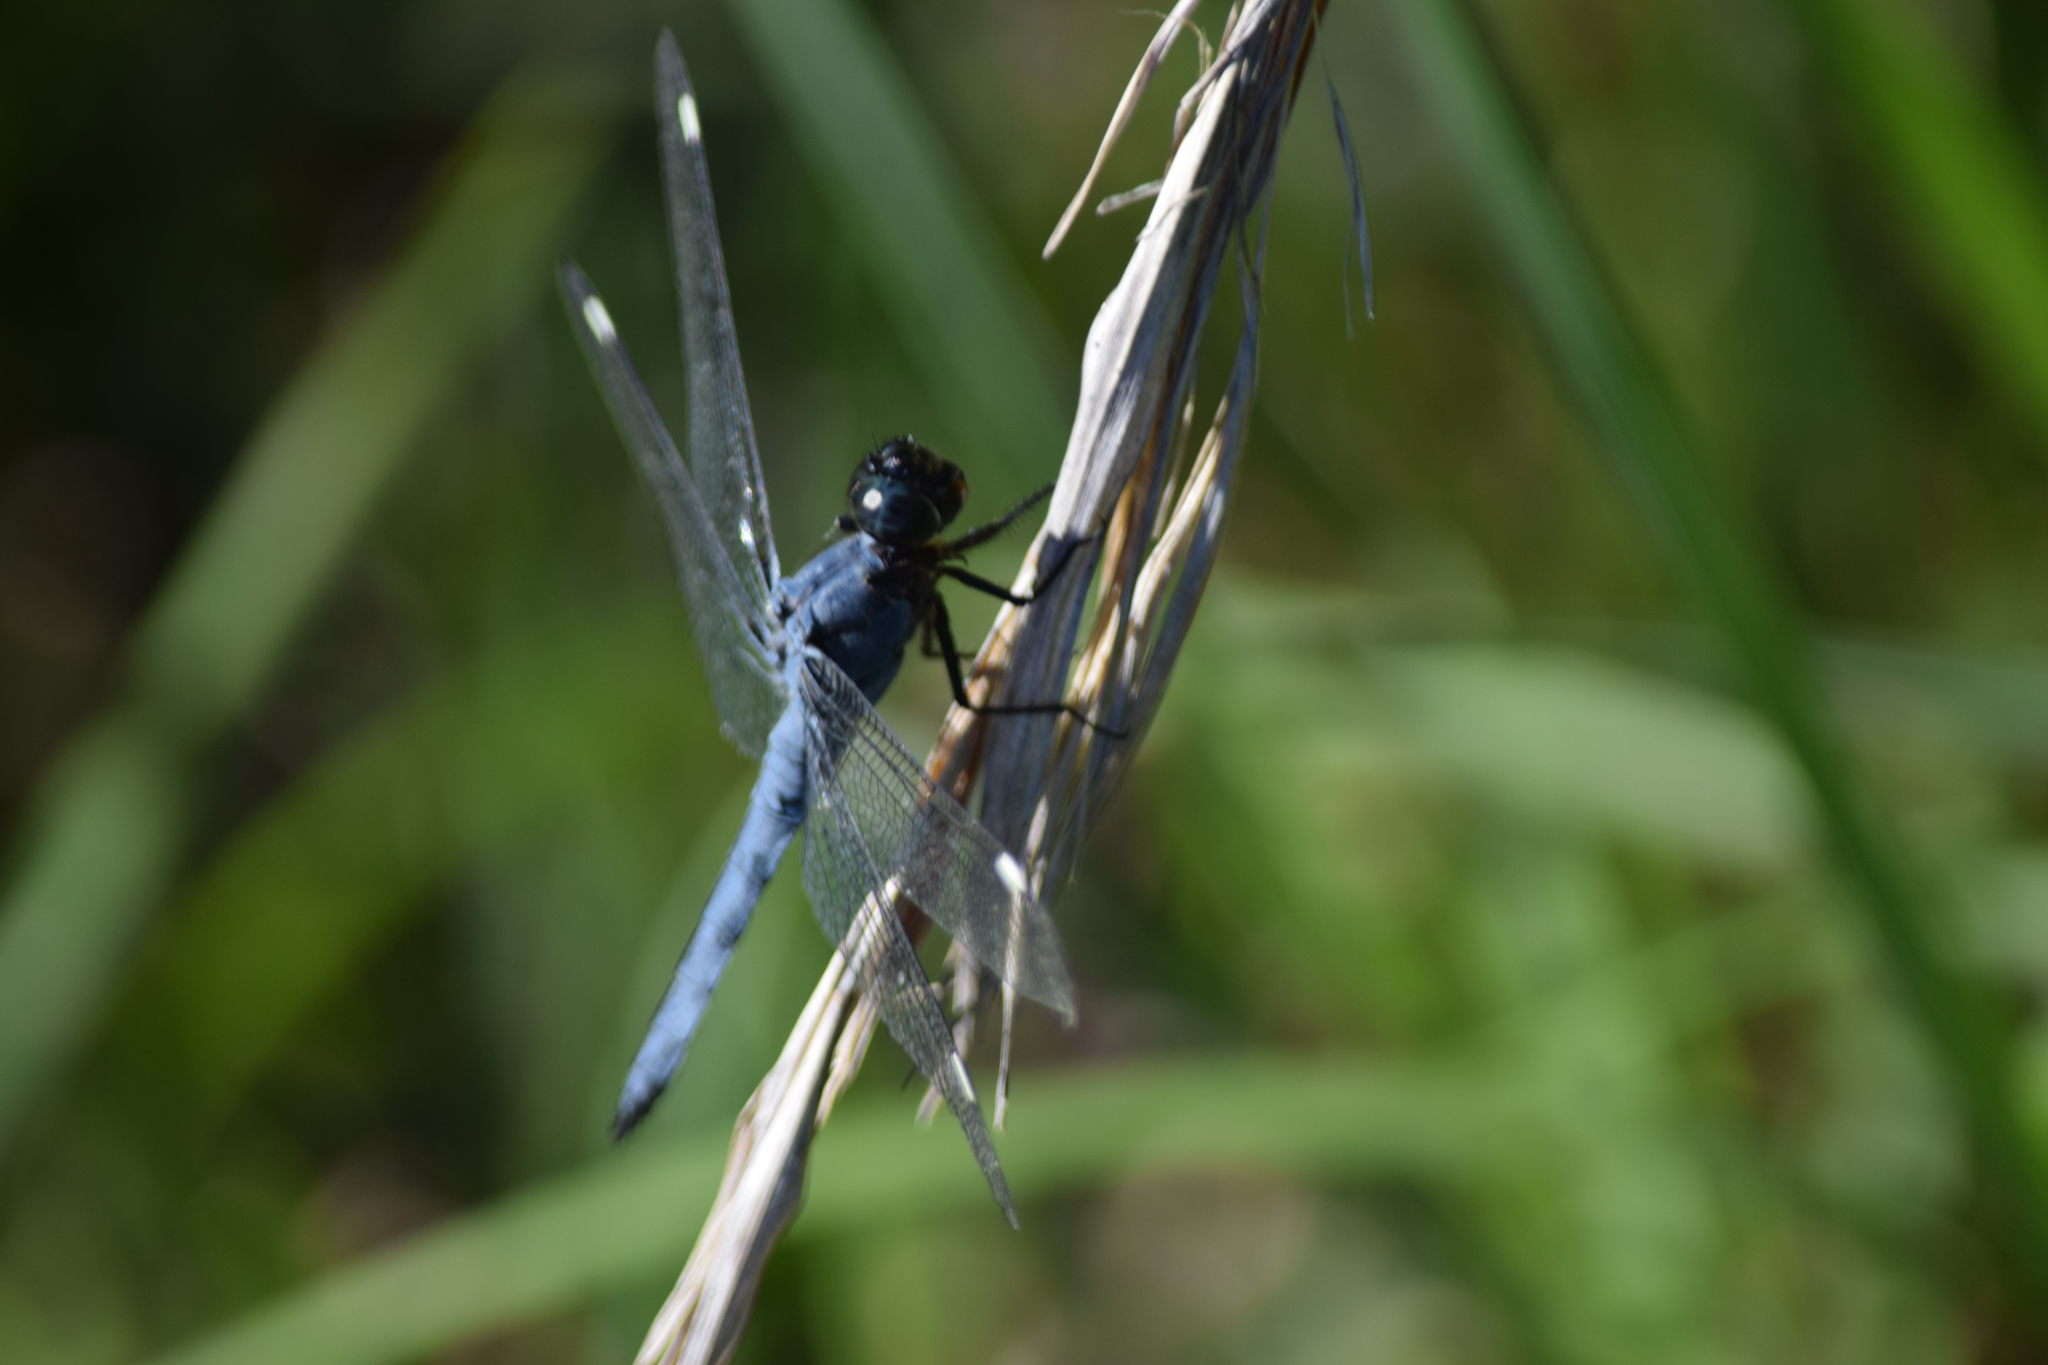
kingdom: Animalia
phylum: Arthropoda
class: Insecta
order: Odonata
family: Libellulidae
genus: Libellula
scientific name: Libellula cyanea
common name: Spangled skimmer
